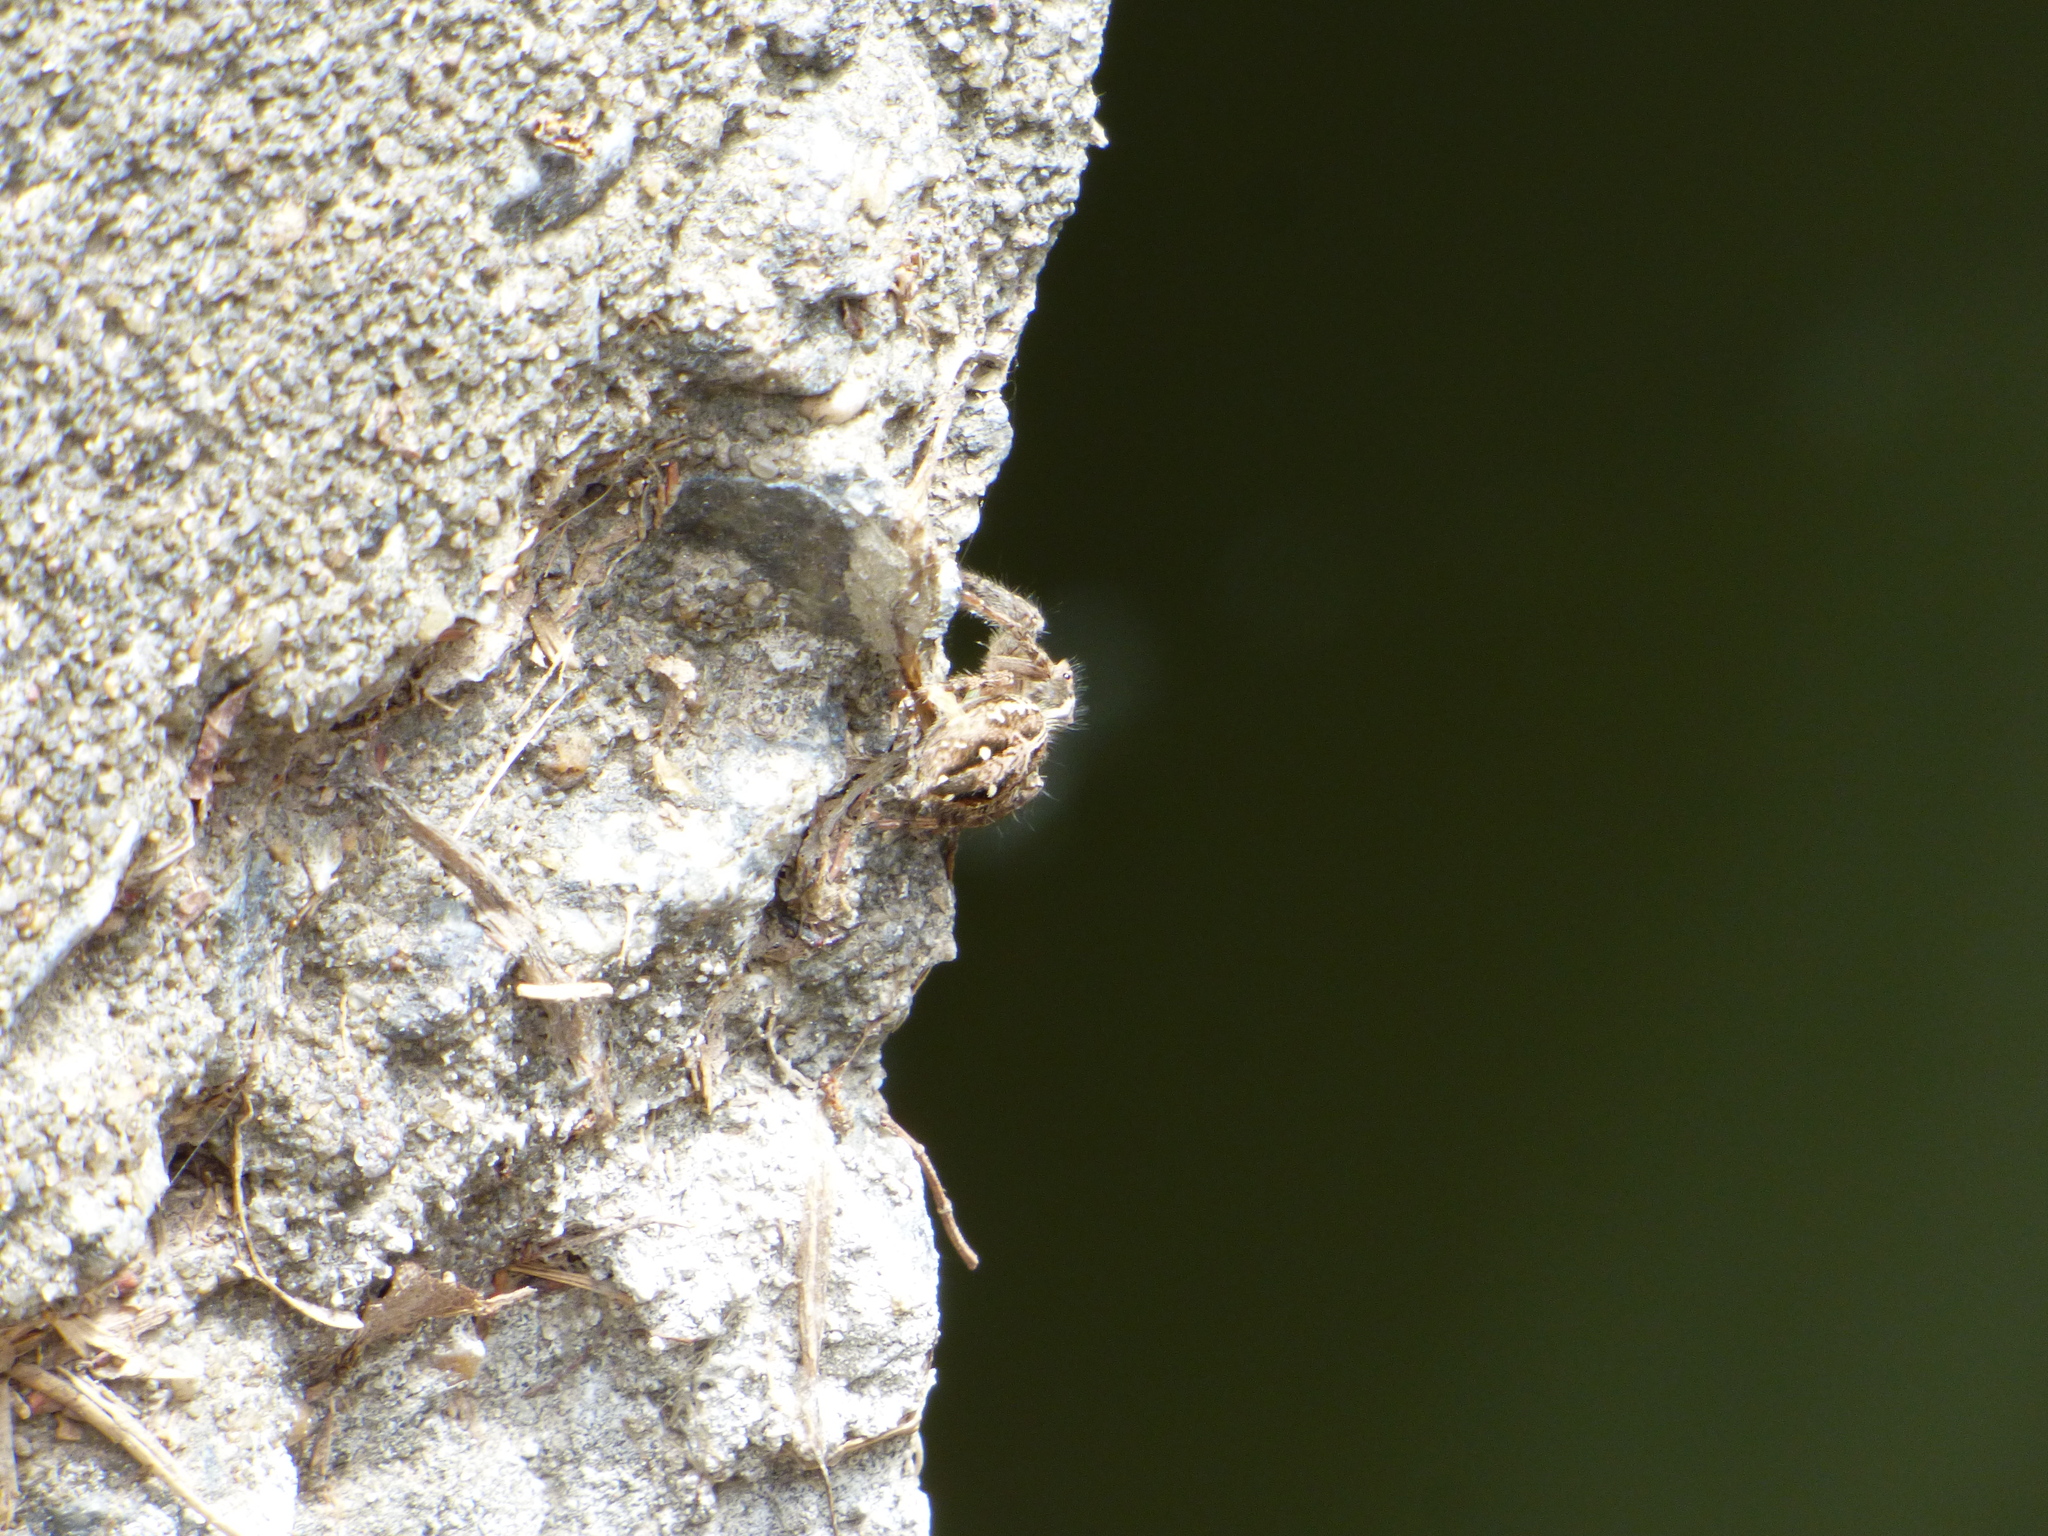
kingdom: Animalia
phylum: Arthropoda
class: Arachnida
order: Araneae
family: Salticidae
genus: Plexippus
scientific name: Plexippus paykulli
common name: Pantropical jumper
